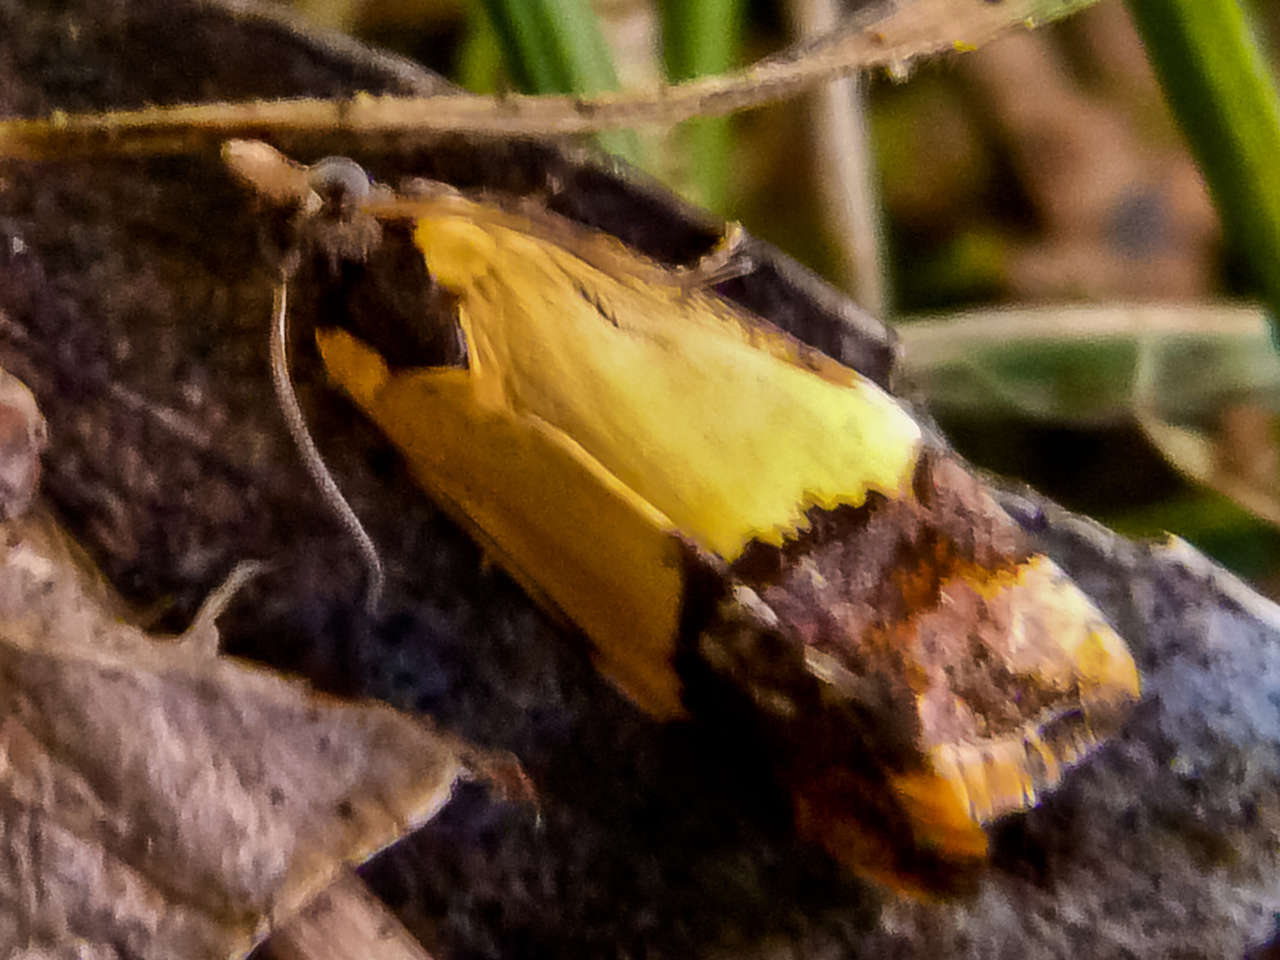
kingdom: Animalia
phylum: Arthropoda
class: Insecta
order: Lepidoptera
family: Tortricidae
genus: Epitymbia
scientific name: Epitymbia cosmota
